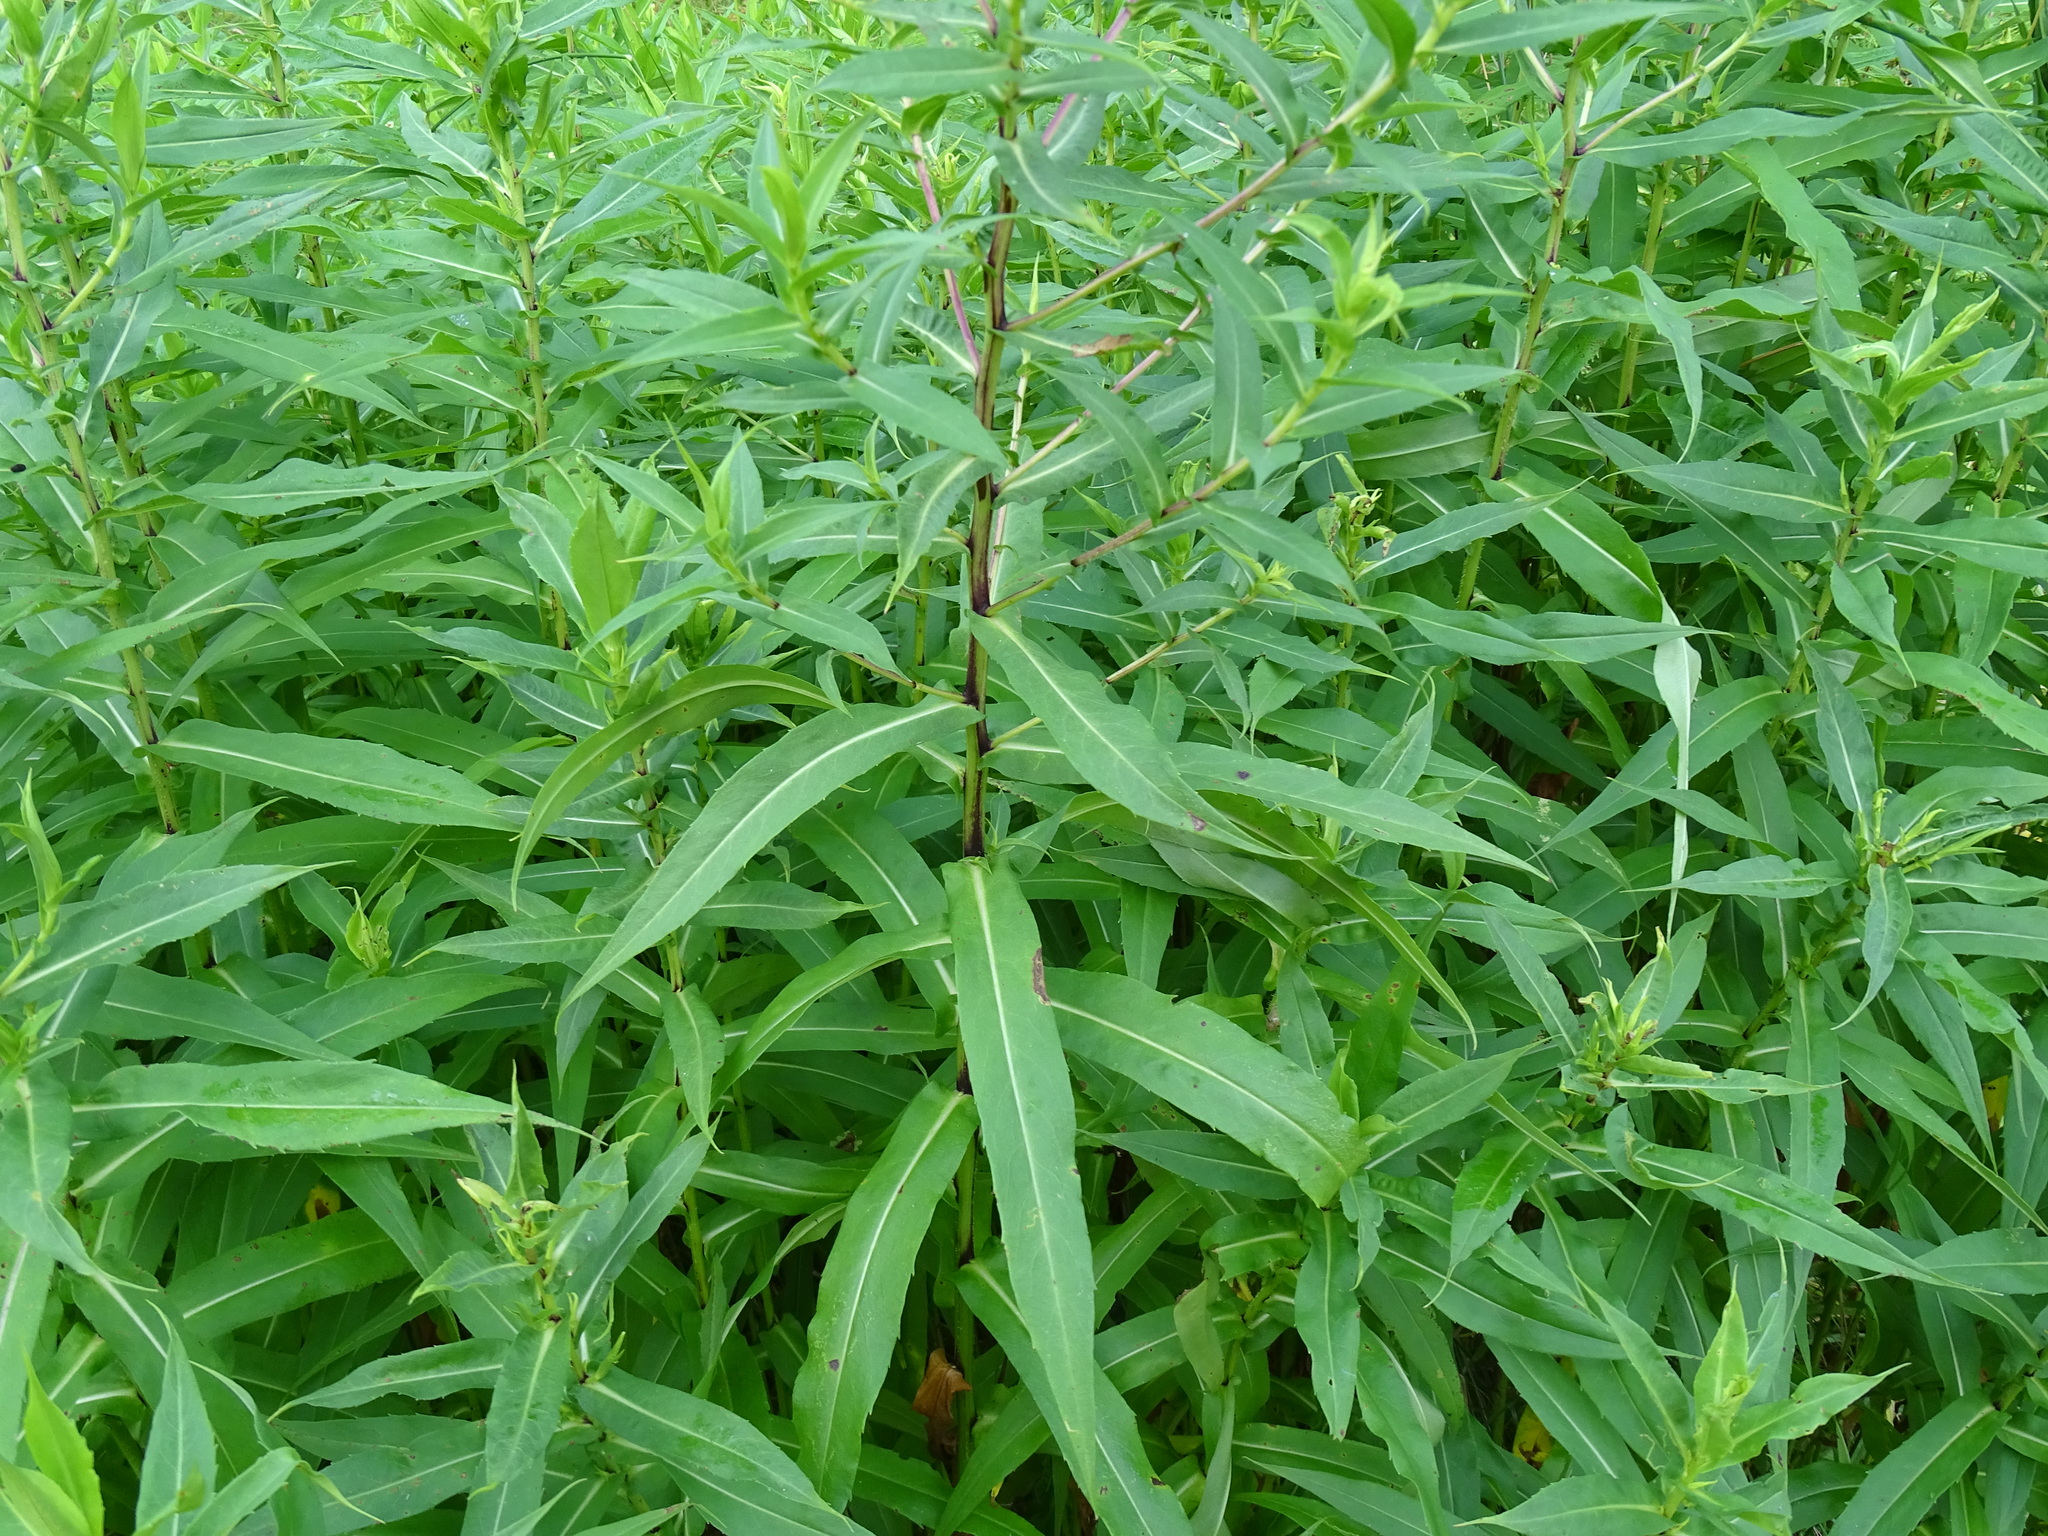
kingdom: Plantae
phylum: Tracheophyta
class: Magnoliopsida
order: Asterales
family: Asteraceae
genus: Symphyotrichum
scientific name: Symphyotrichum firmum
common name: Shining aster
